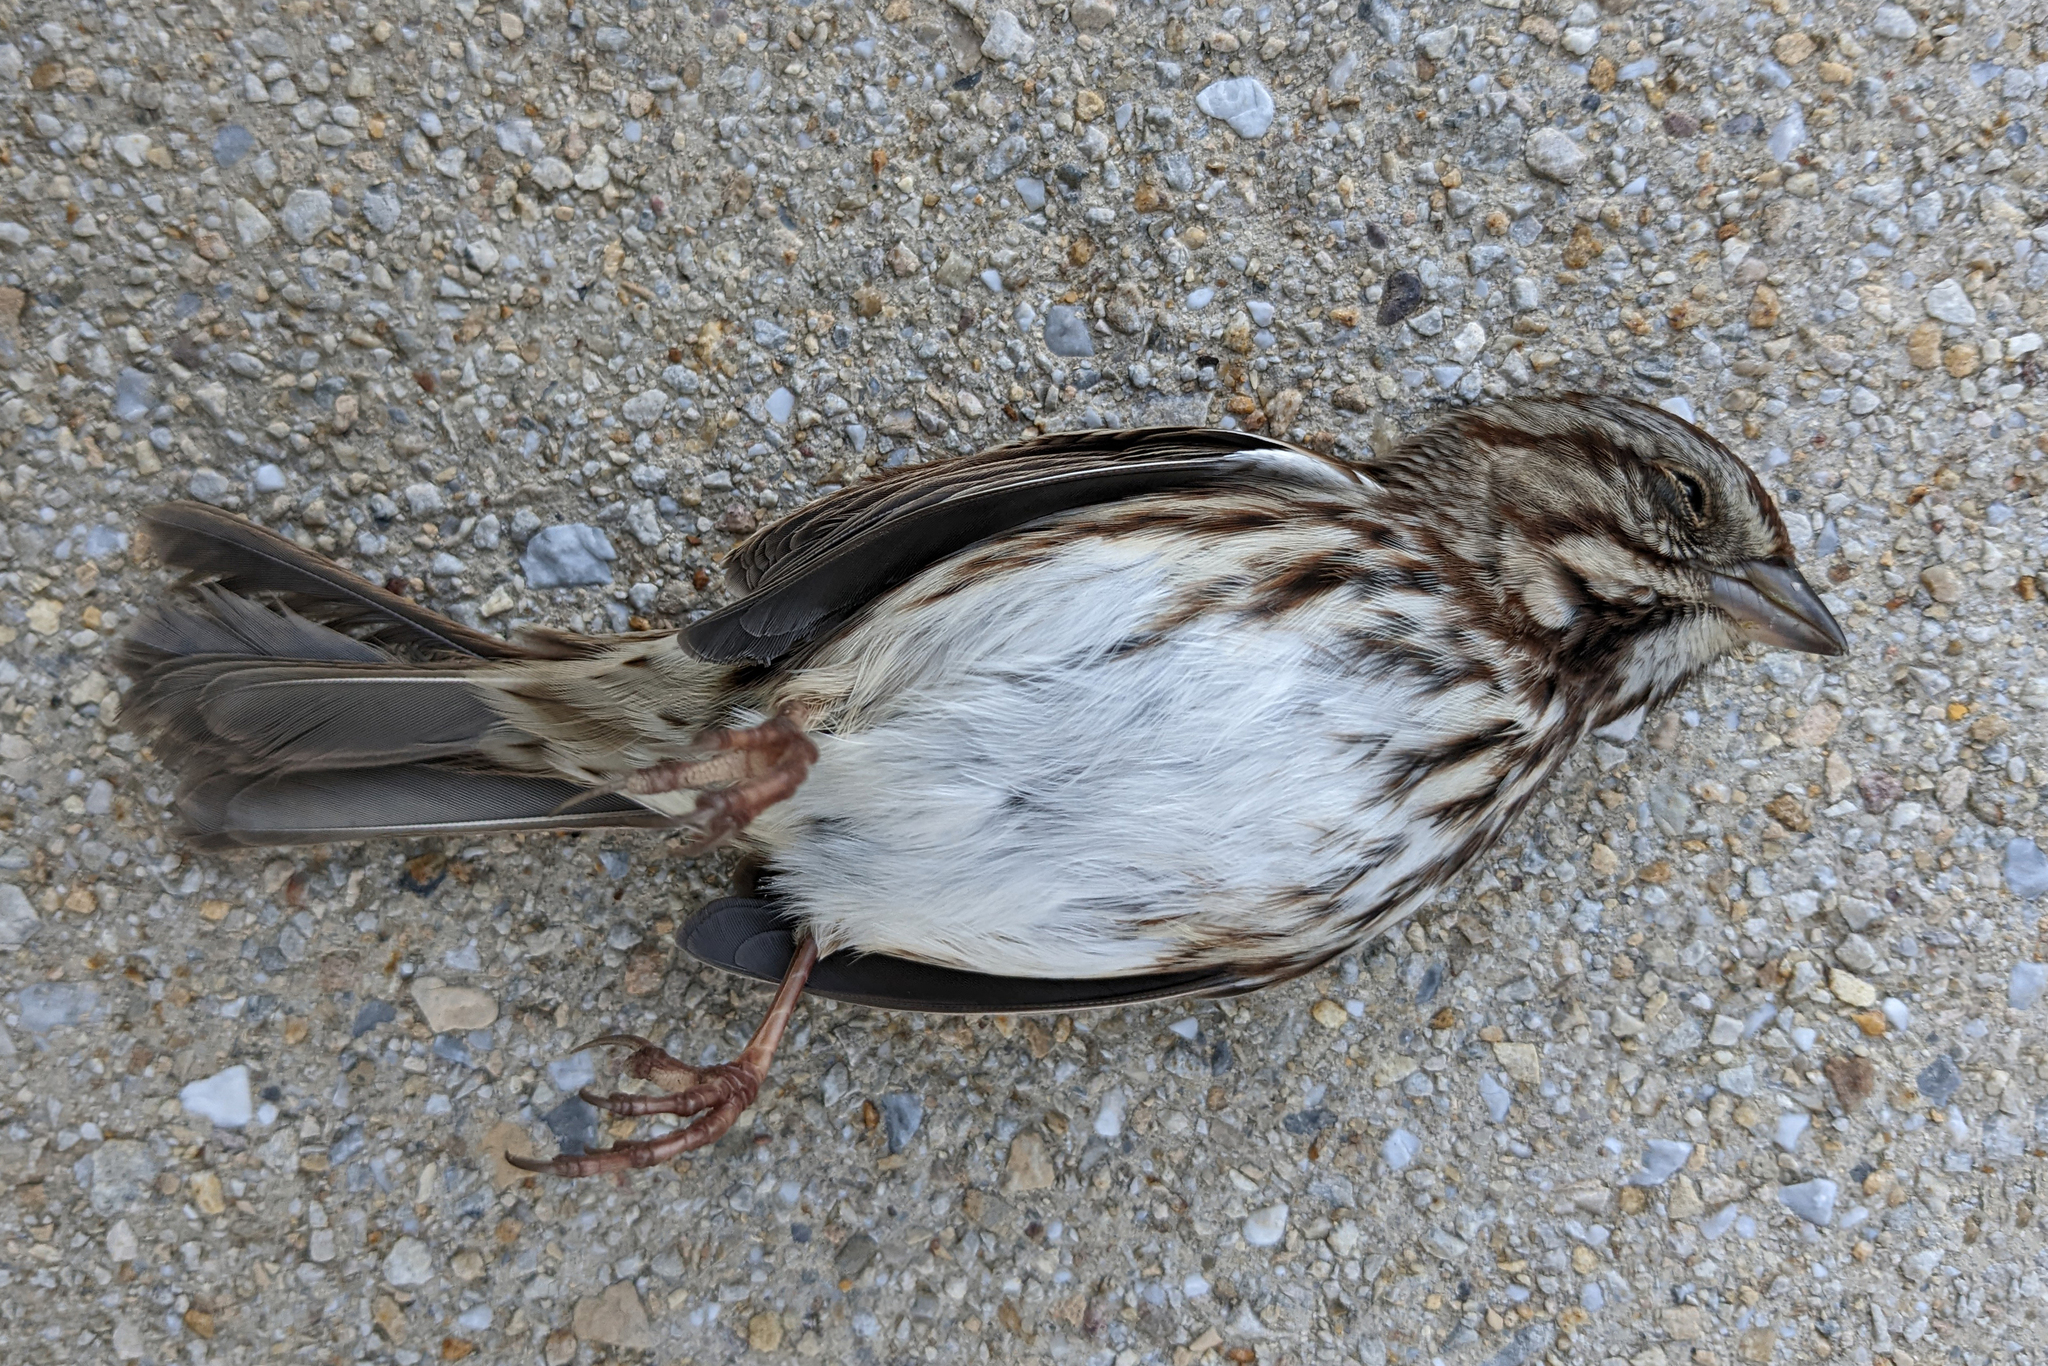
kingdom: Animalia
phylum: Chordata
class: Aves
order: Passeriformes
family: Passerellidae
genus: Melospiza
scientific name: Melospiza melodia
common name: Song sparrow
